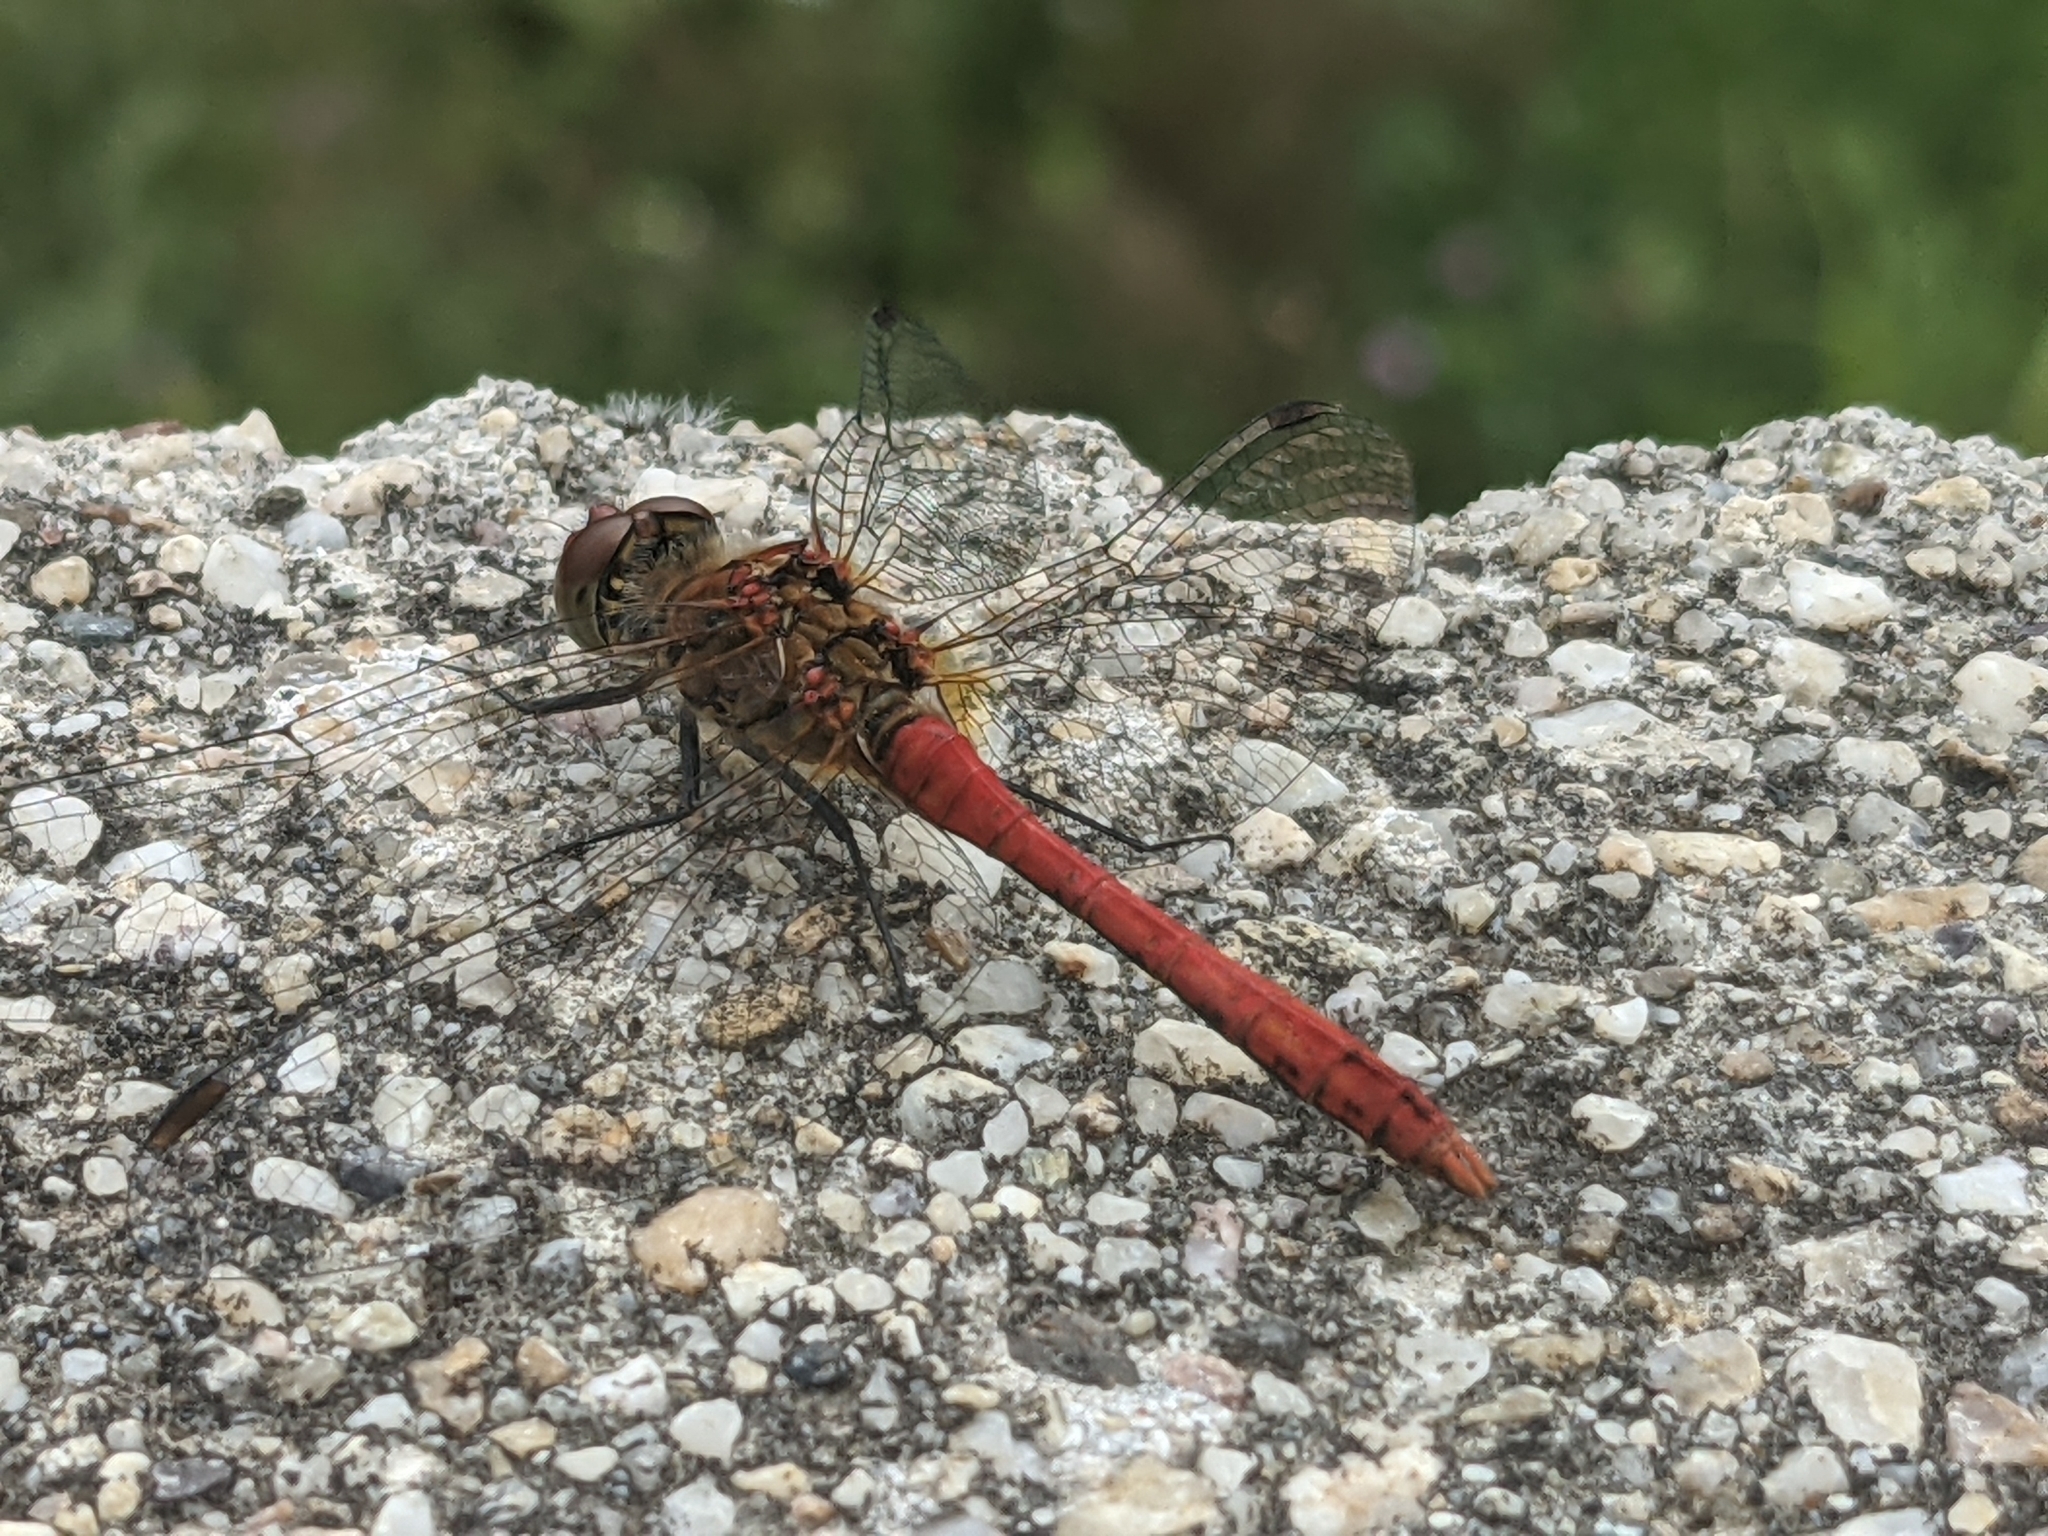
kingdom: Animalia
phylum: Arthropoda
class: Insecta
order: Odonata
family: Libellulidae
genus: Sympetrum
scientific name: Sympetrum sanguineum
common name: Ruddy darter
